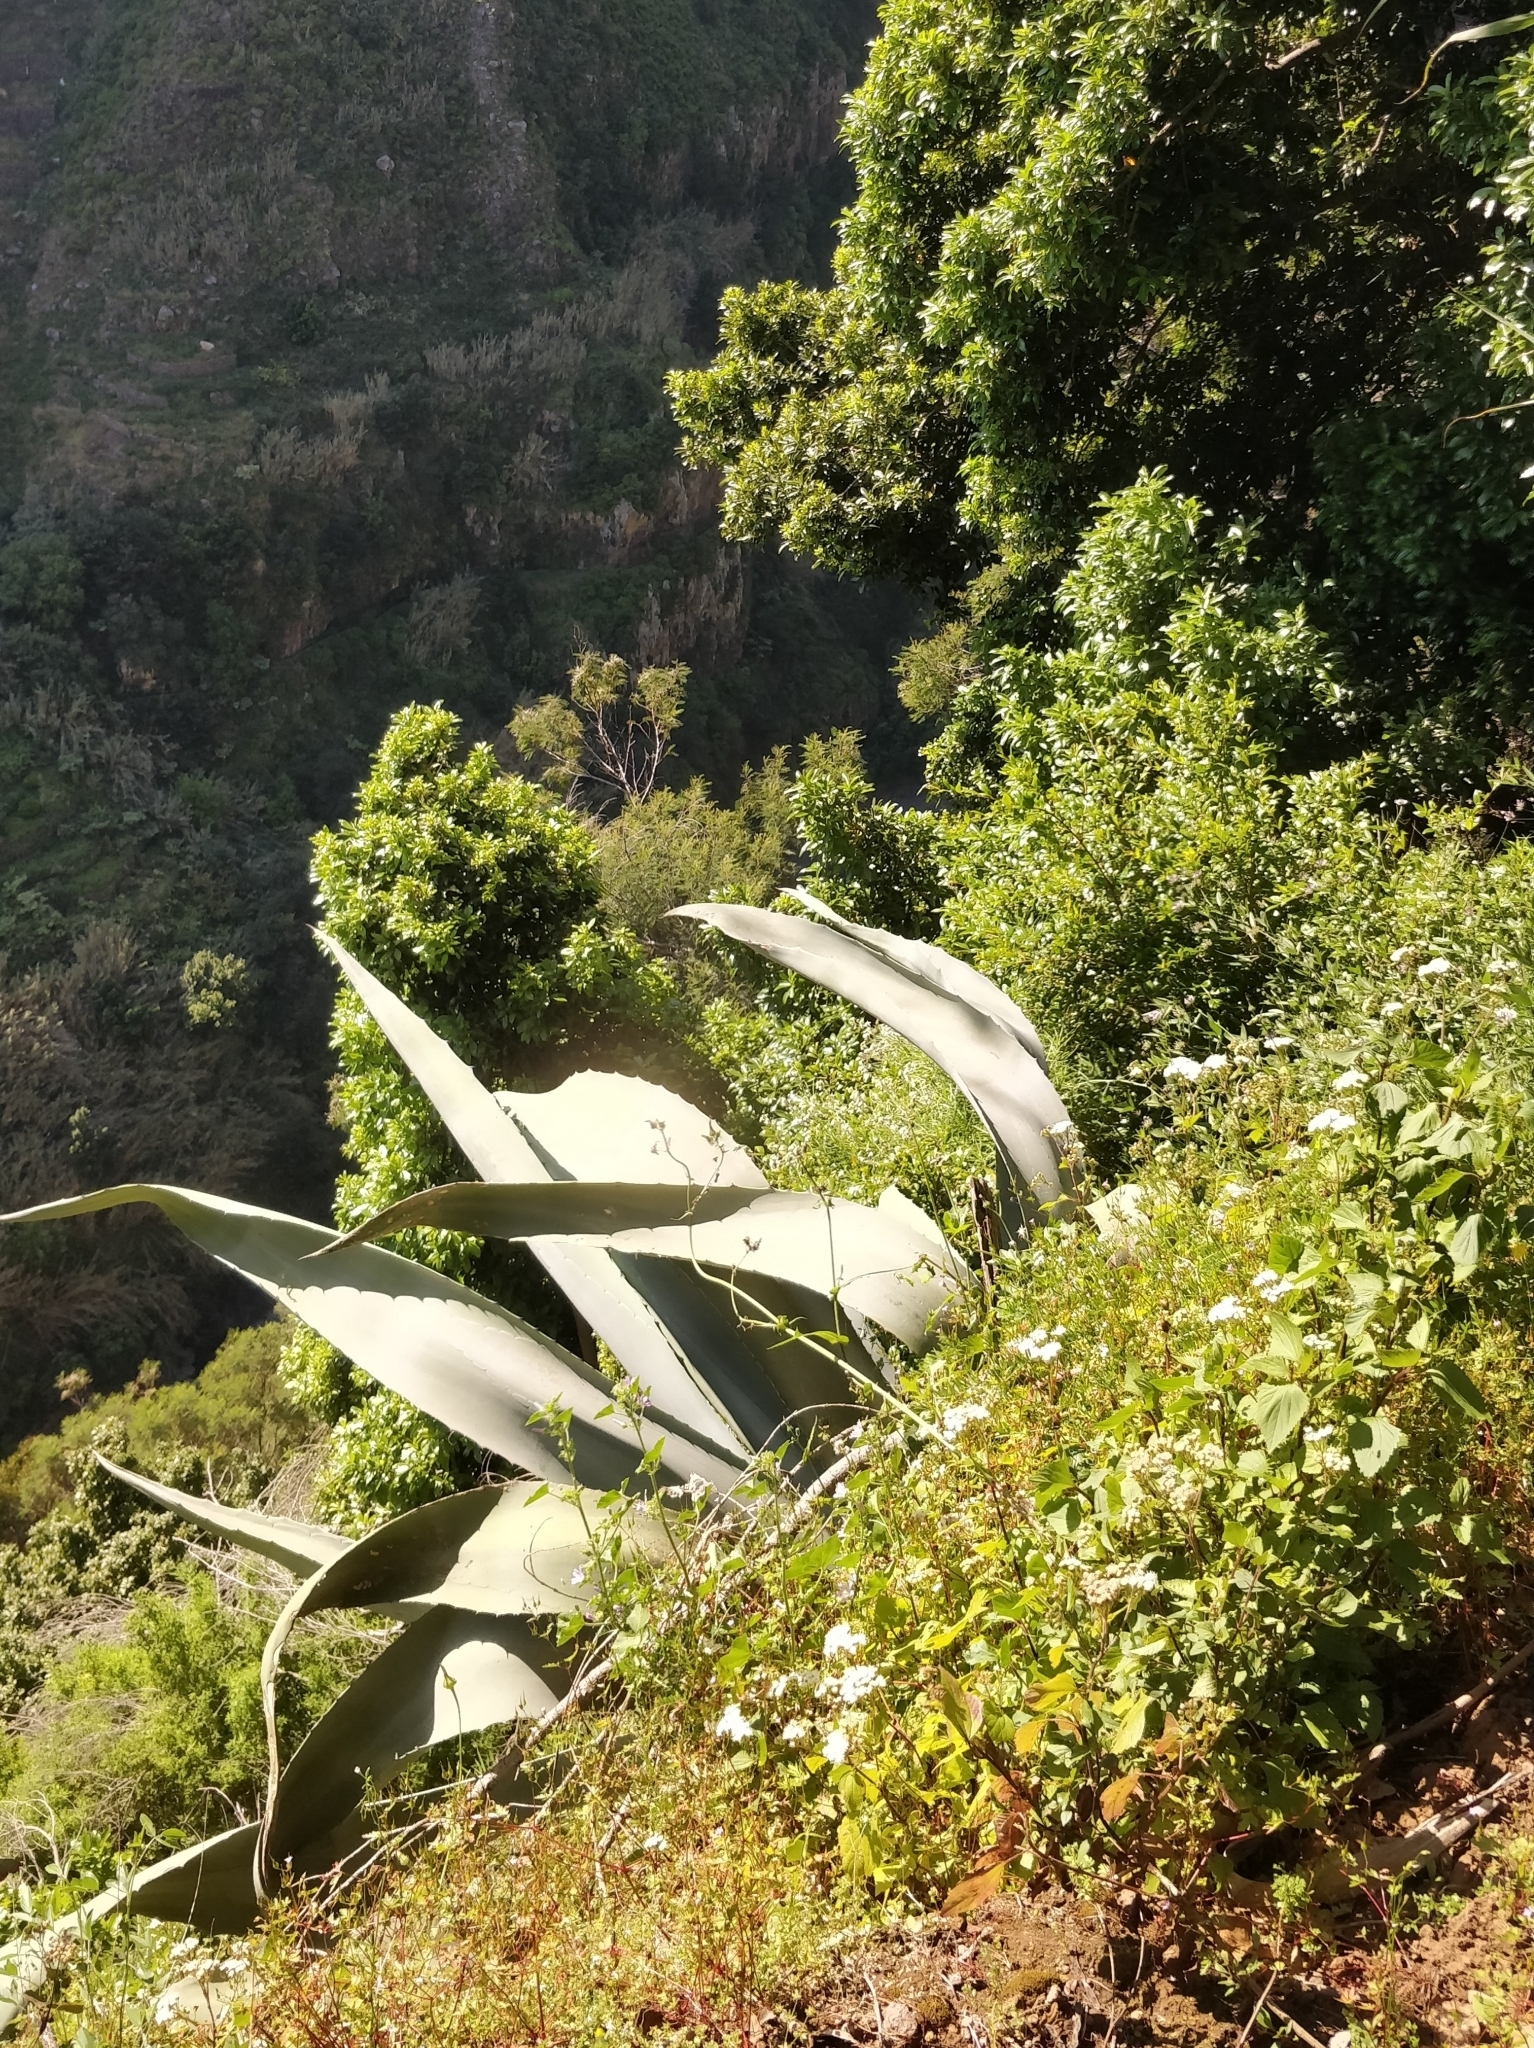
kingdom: Plantae
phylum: Tracheophyta
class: Liliopsida
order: Asparagales
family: Asparagaceae
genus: Agave
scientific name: Agave americana
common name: Centuryplant
